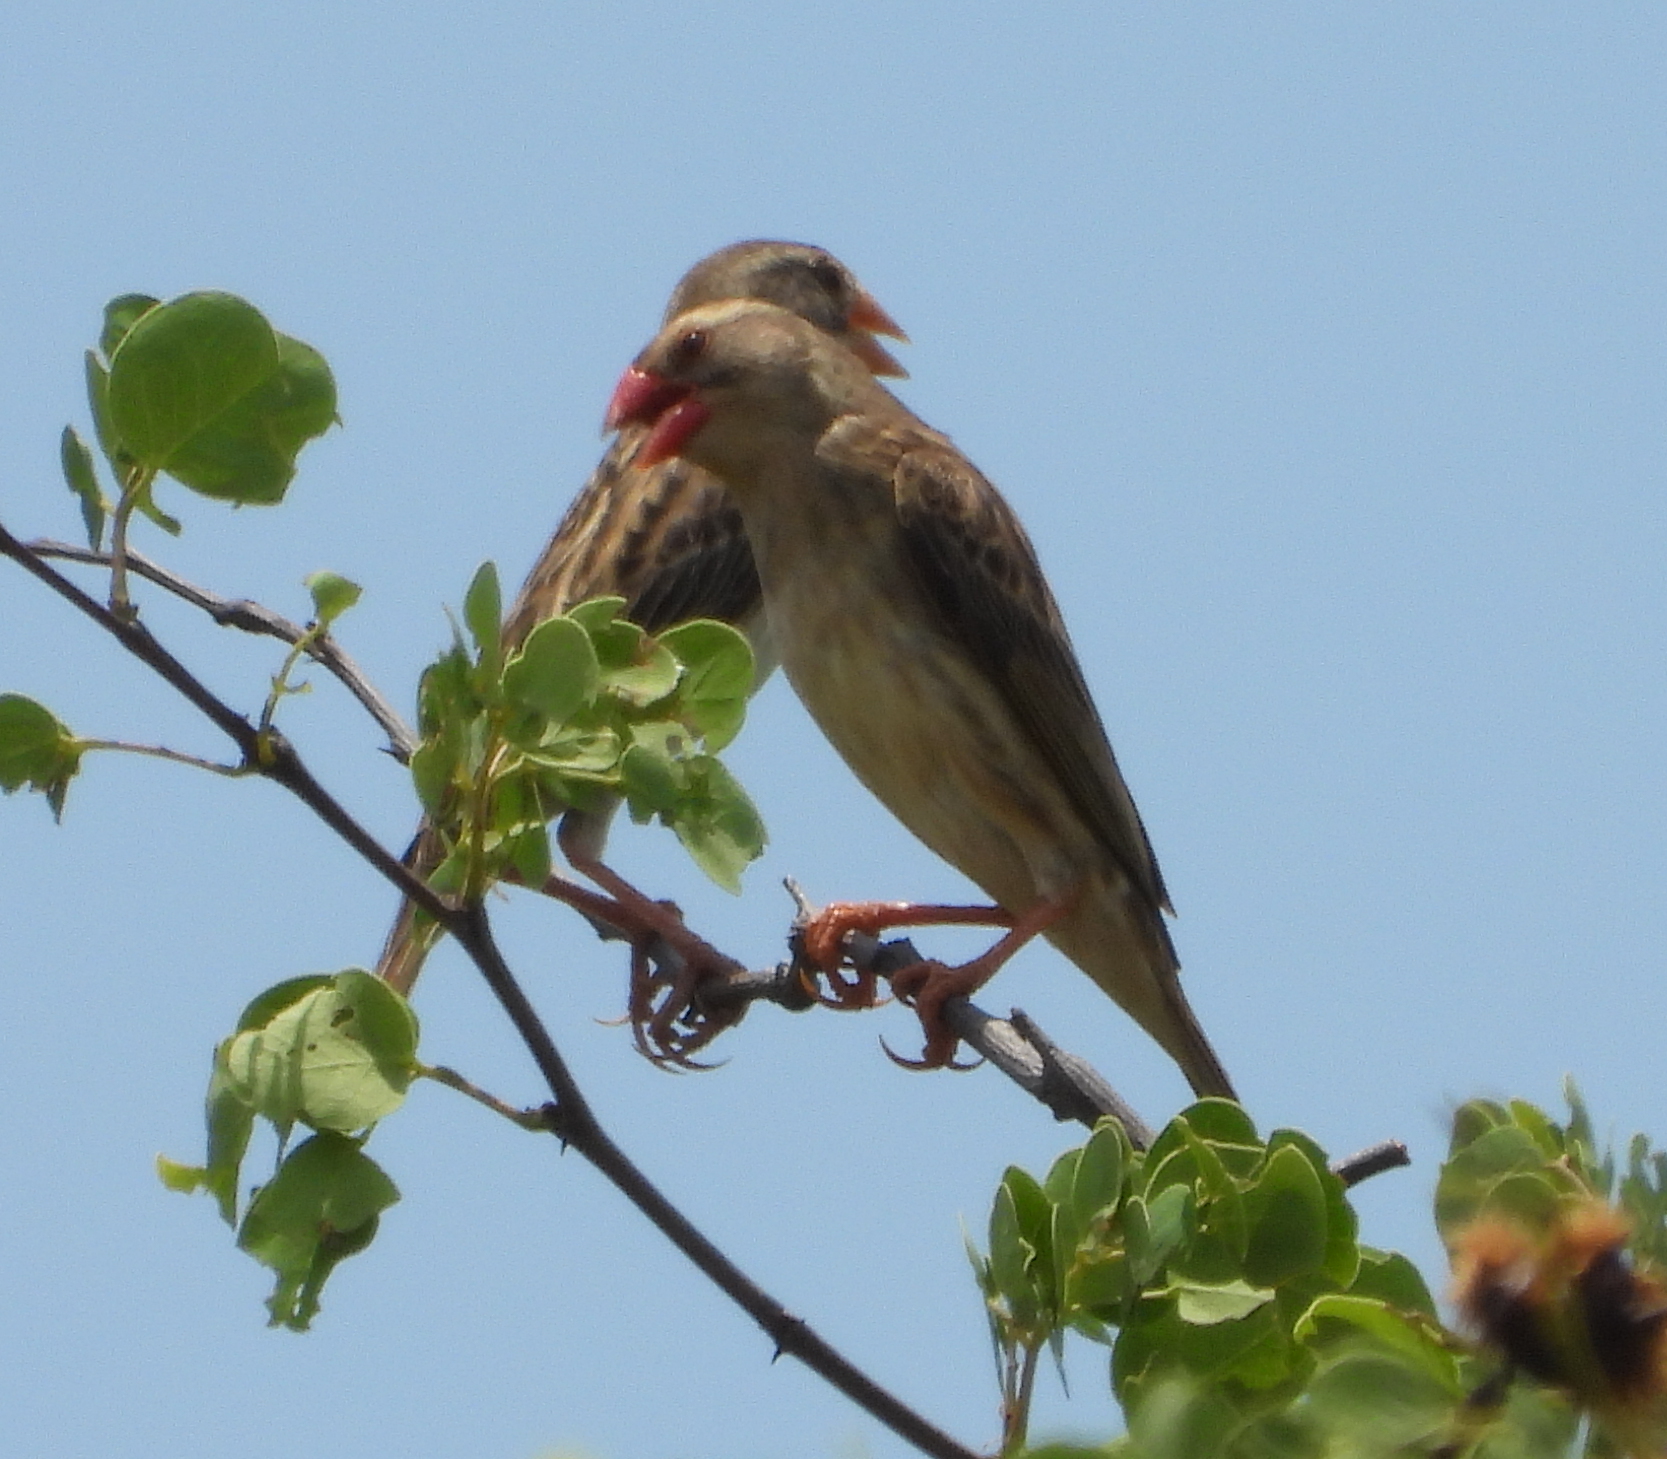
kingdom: Animalia
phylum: Chordata
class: Aves
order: Passeriformes
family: Ploceidae
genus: Quelea
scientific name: Quelea quelea
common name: Red-billed quelea
